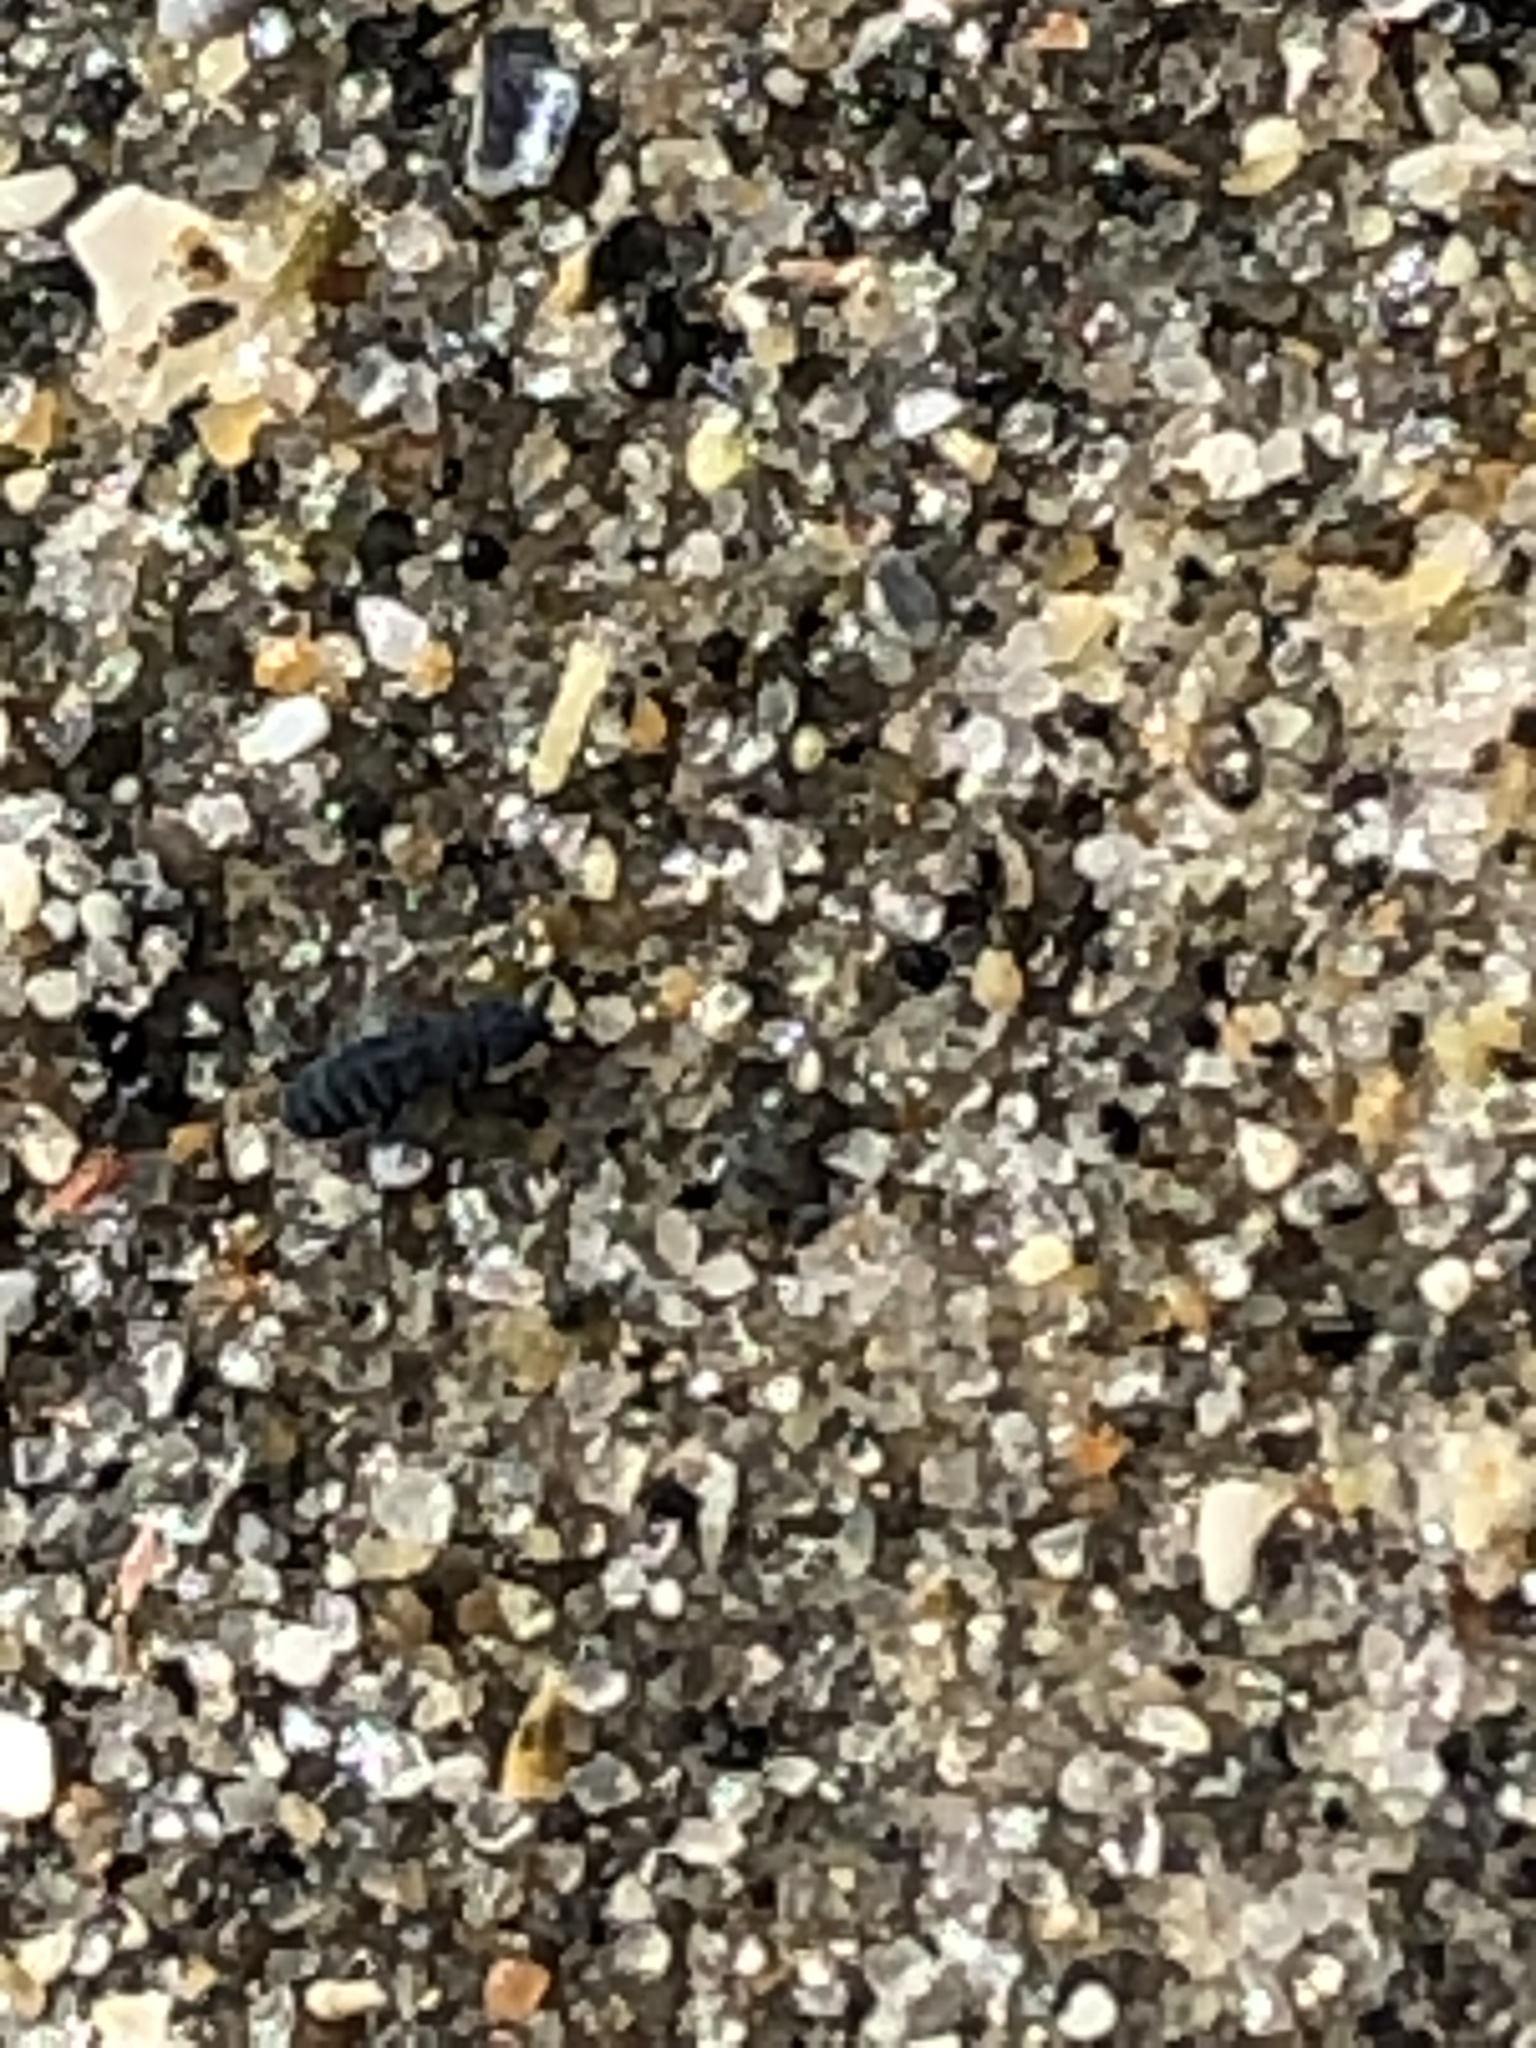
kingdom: Animalia
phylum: Arthropoda
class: Collembola
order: Poduromorpha
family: Neanuridae
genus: Anurida
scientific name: Anurida maritima
